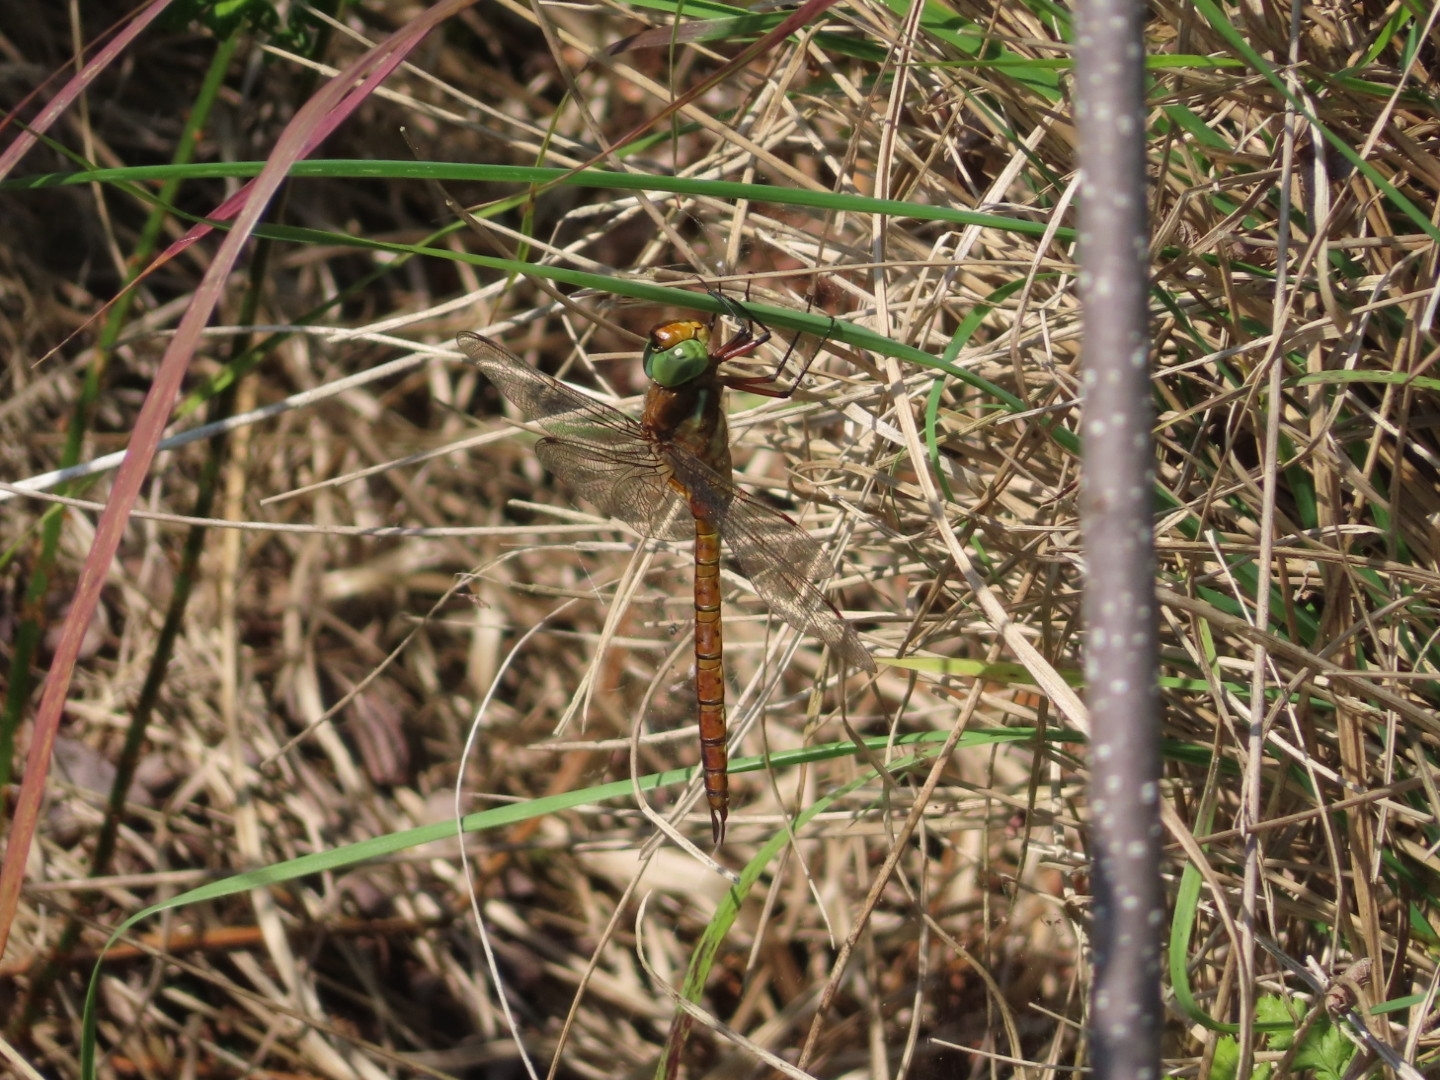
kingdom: Animalia
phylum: Arthropoda
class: Insecta
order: Odonata
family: Aeshnidae
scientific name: Aeshnidae
